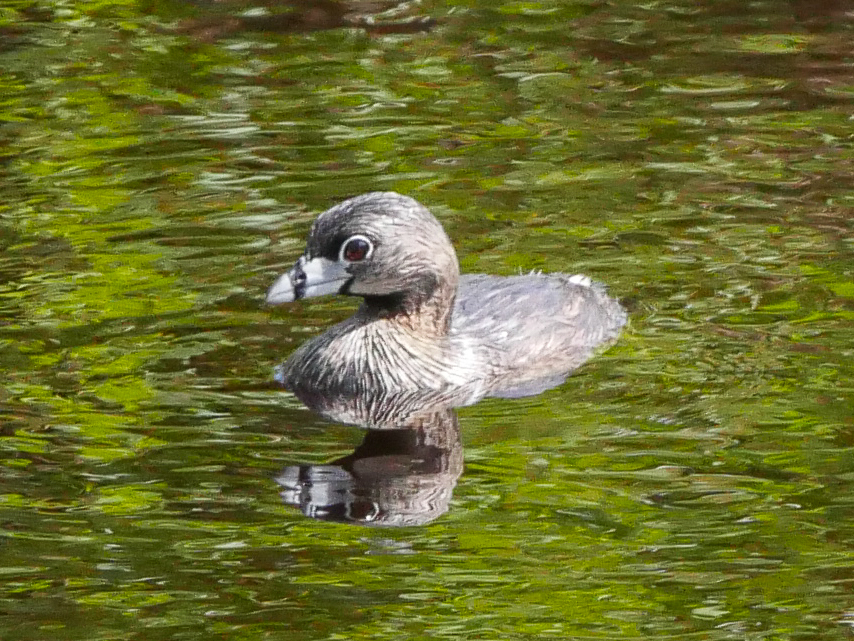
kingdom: Animalia
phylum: Chordata
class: Aves
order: Podicipediformes
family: Podicipedidae
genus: Podilymbus
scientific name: Podilymbus podiceps
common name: Pied-billed grebe
